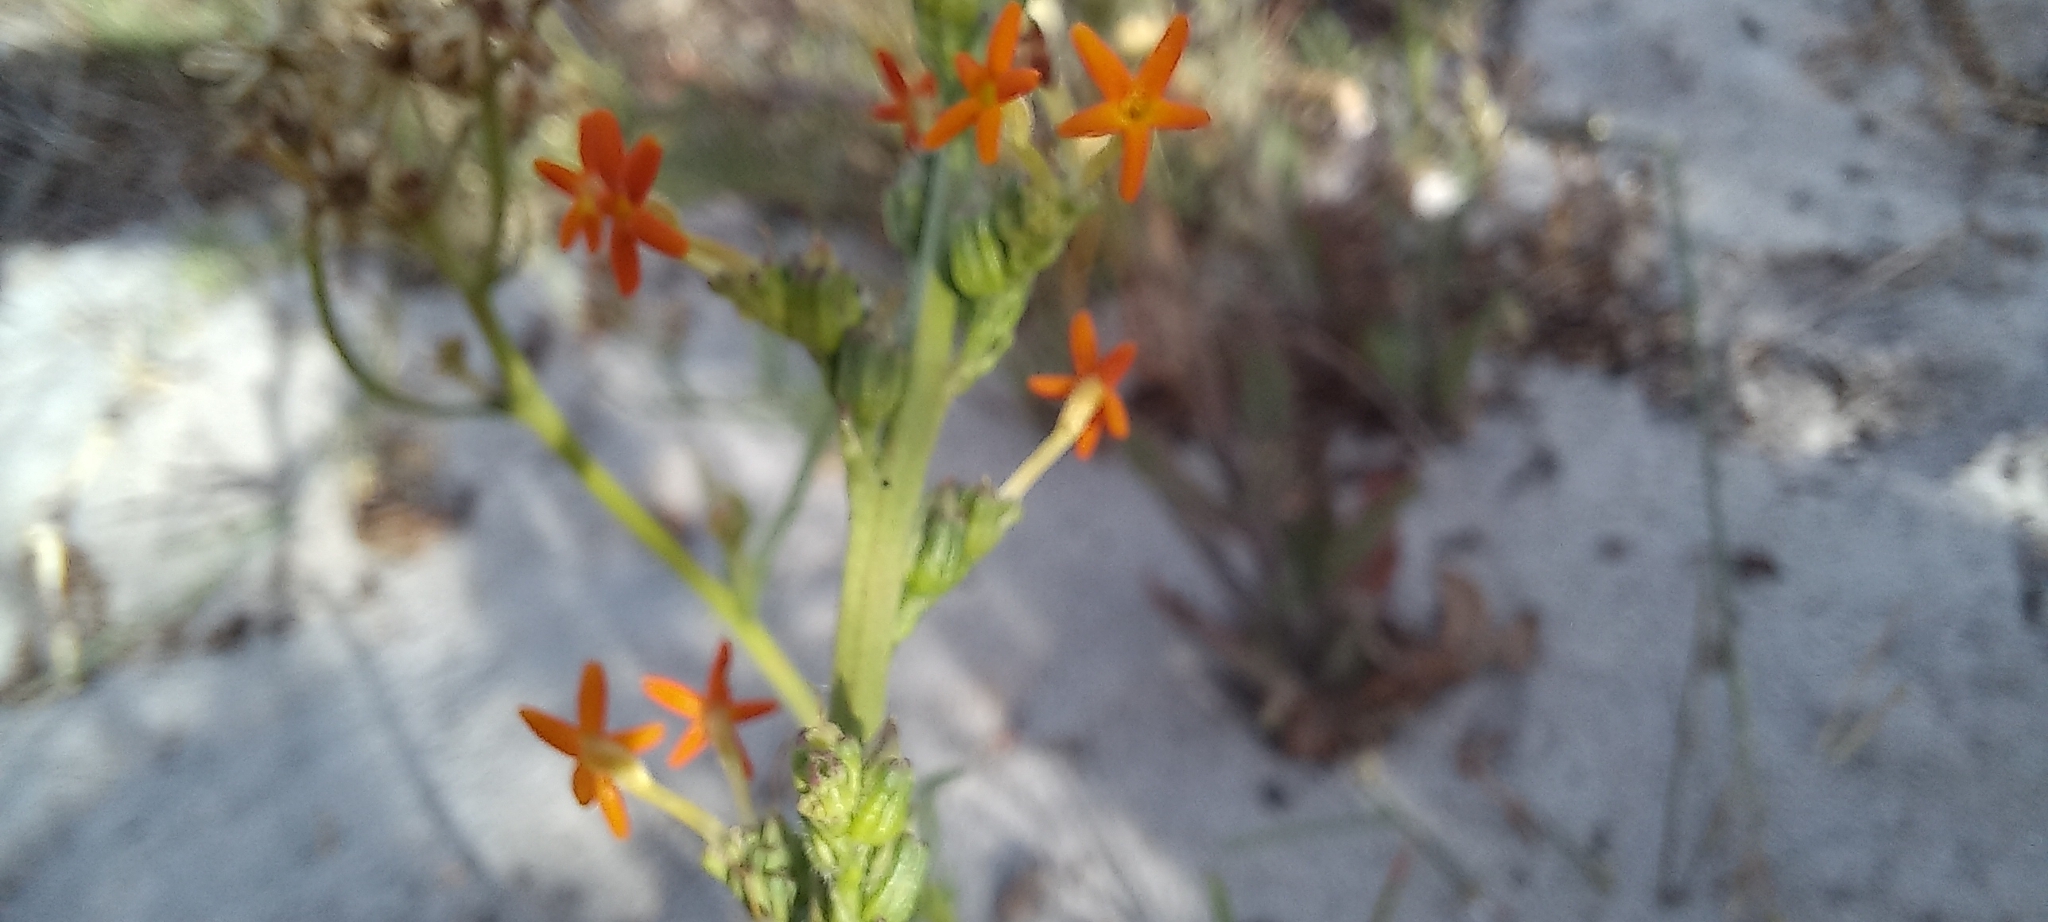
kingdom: Plantae
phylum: Tracheophyta
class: Magnoliopsida
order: Lamiales
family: Scrophulariaceae
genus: Manulea
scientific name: Manulea rubra
